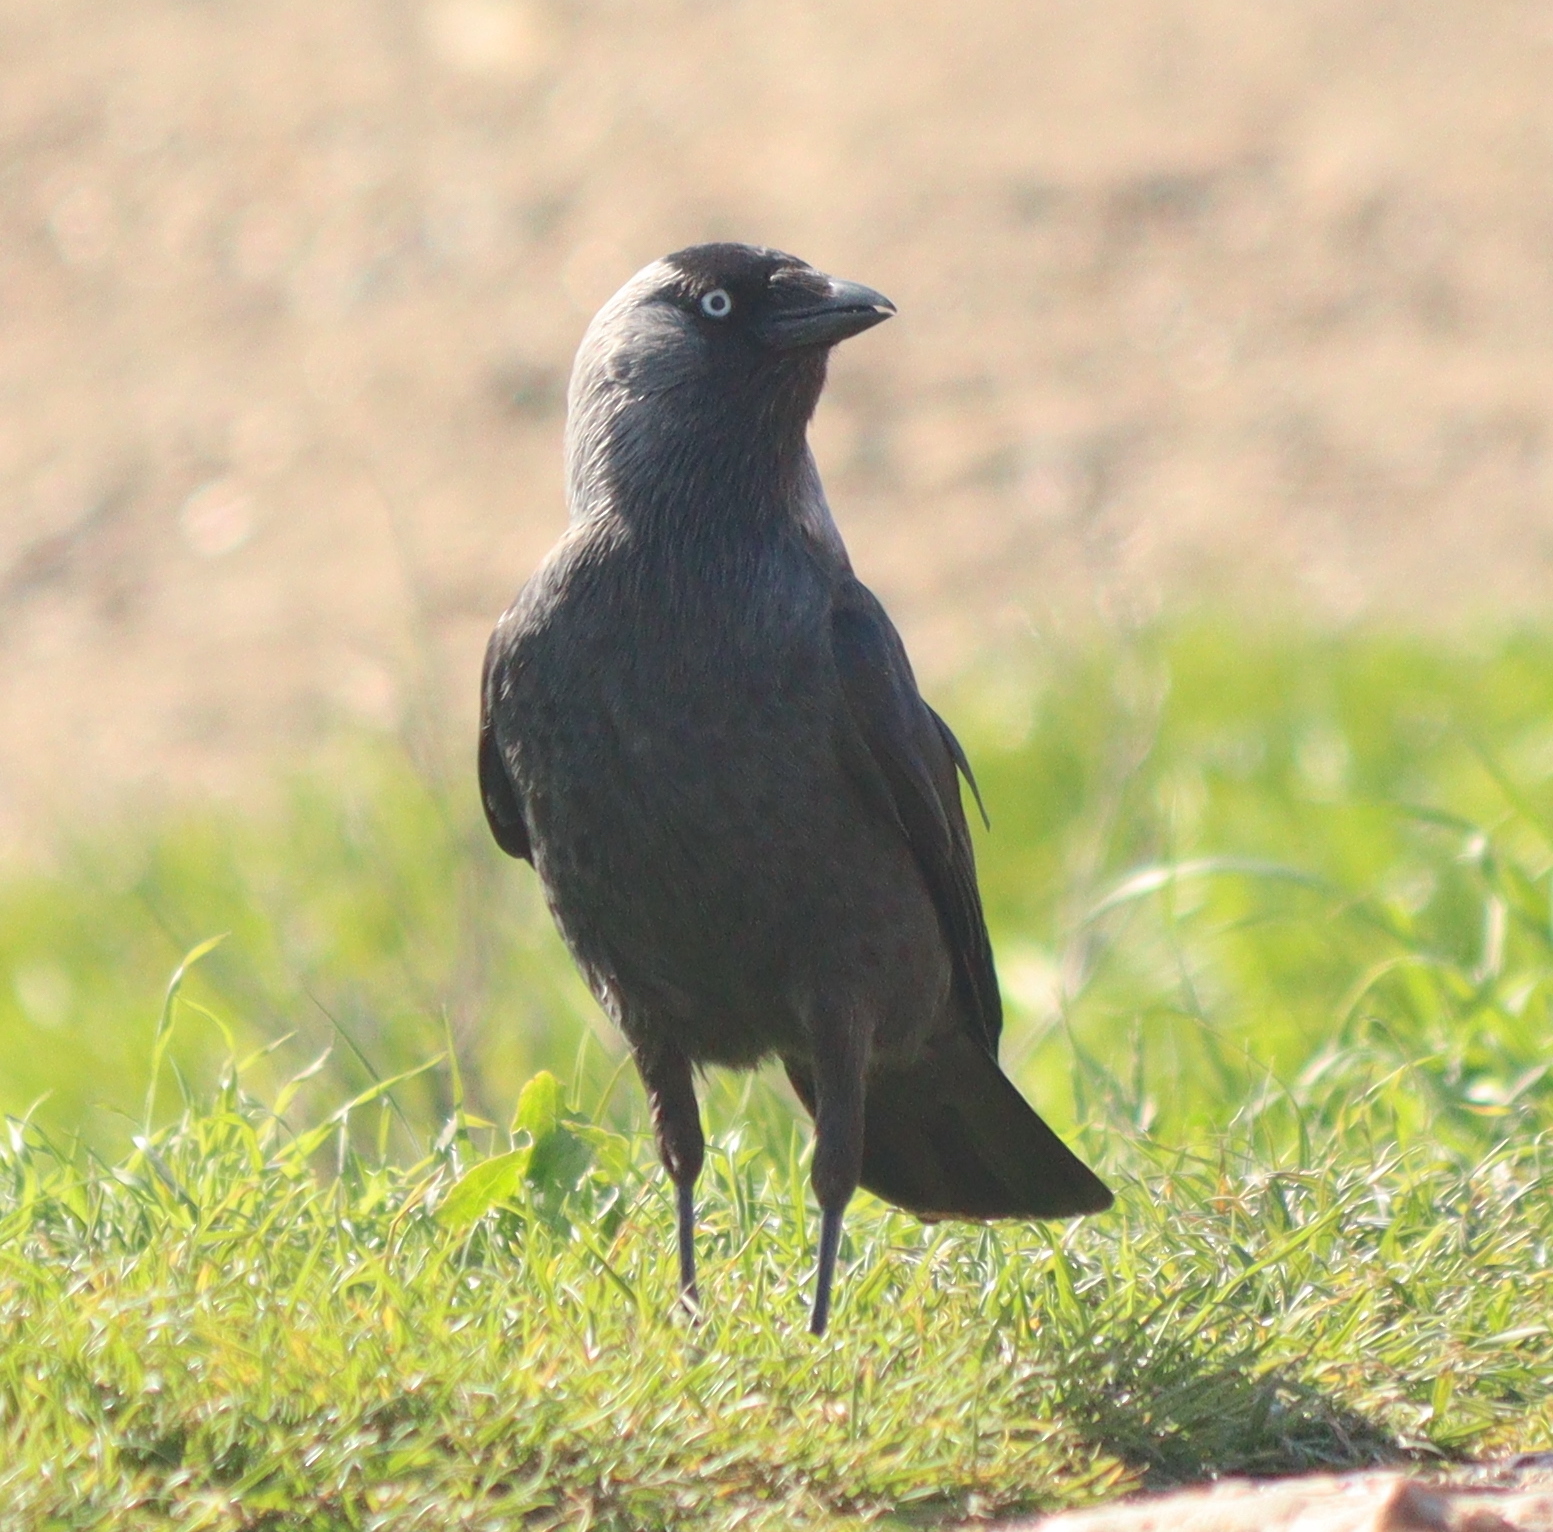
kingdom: Animalia
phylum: Chordata
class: Aves
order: Passeriformes
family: Corvidae
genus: Coloeus
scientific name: Coloeus monedula
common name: Western jackdaw
